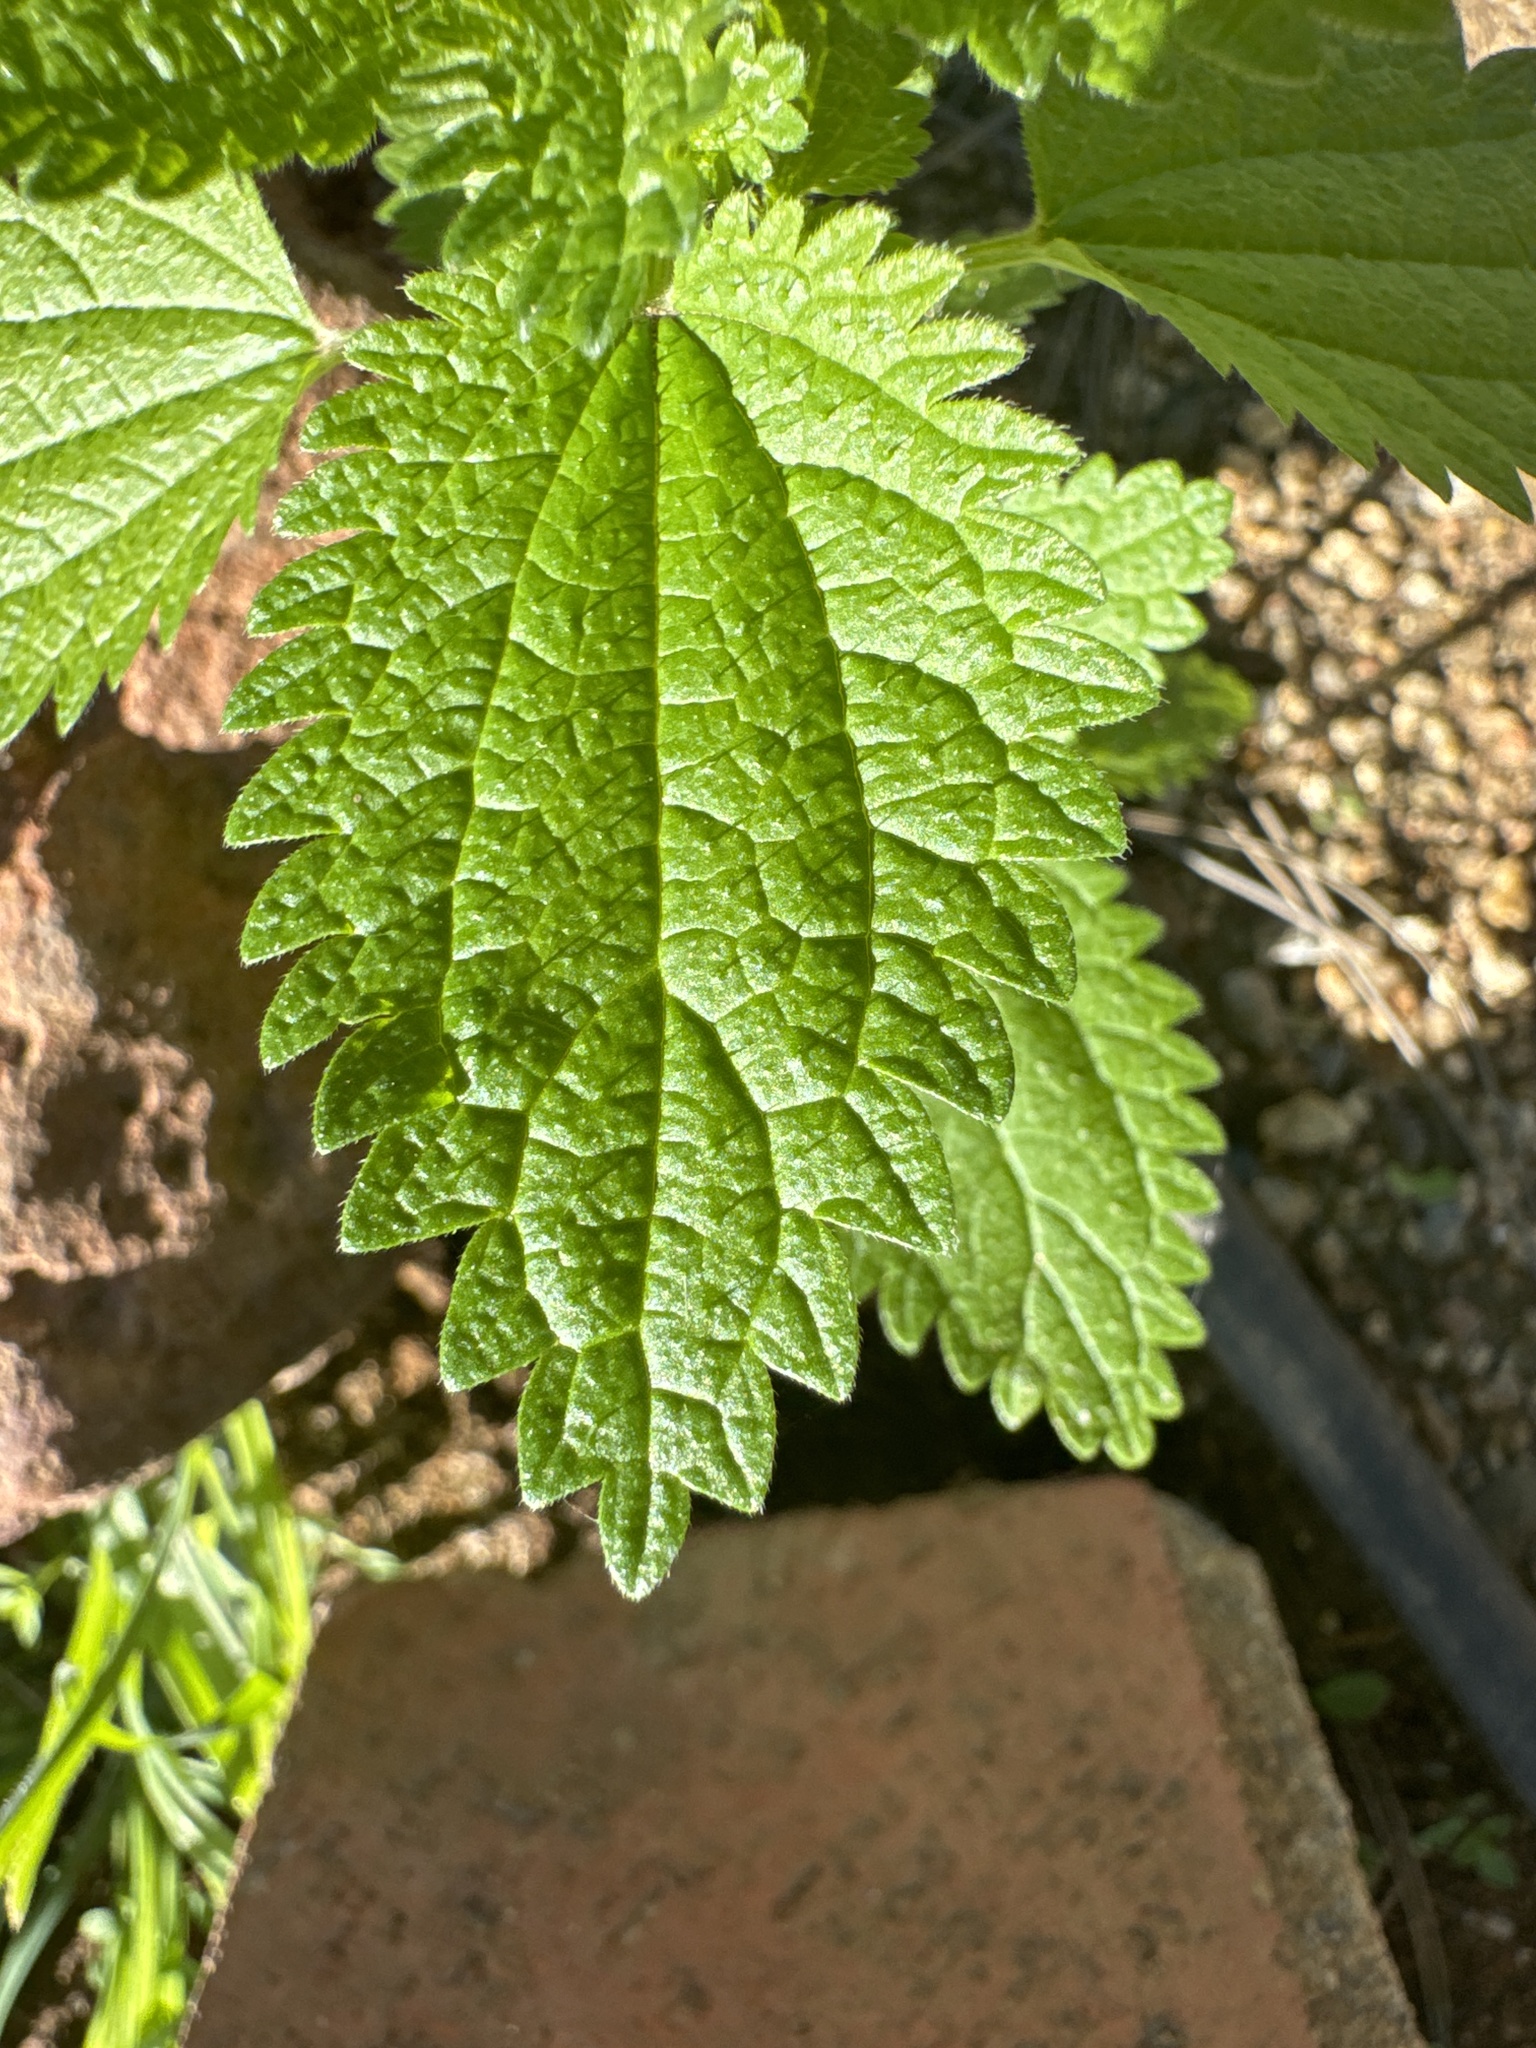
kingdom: Plantae
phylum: Tracheophyta
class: Magnoliopsida
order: Rosales
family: Urticaceae
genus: Urtica
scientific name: Urtica urens
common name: Dwarf nettle
